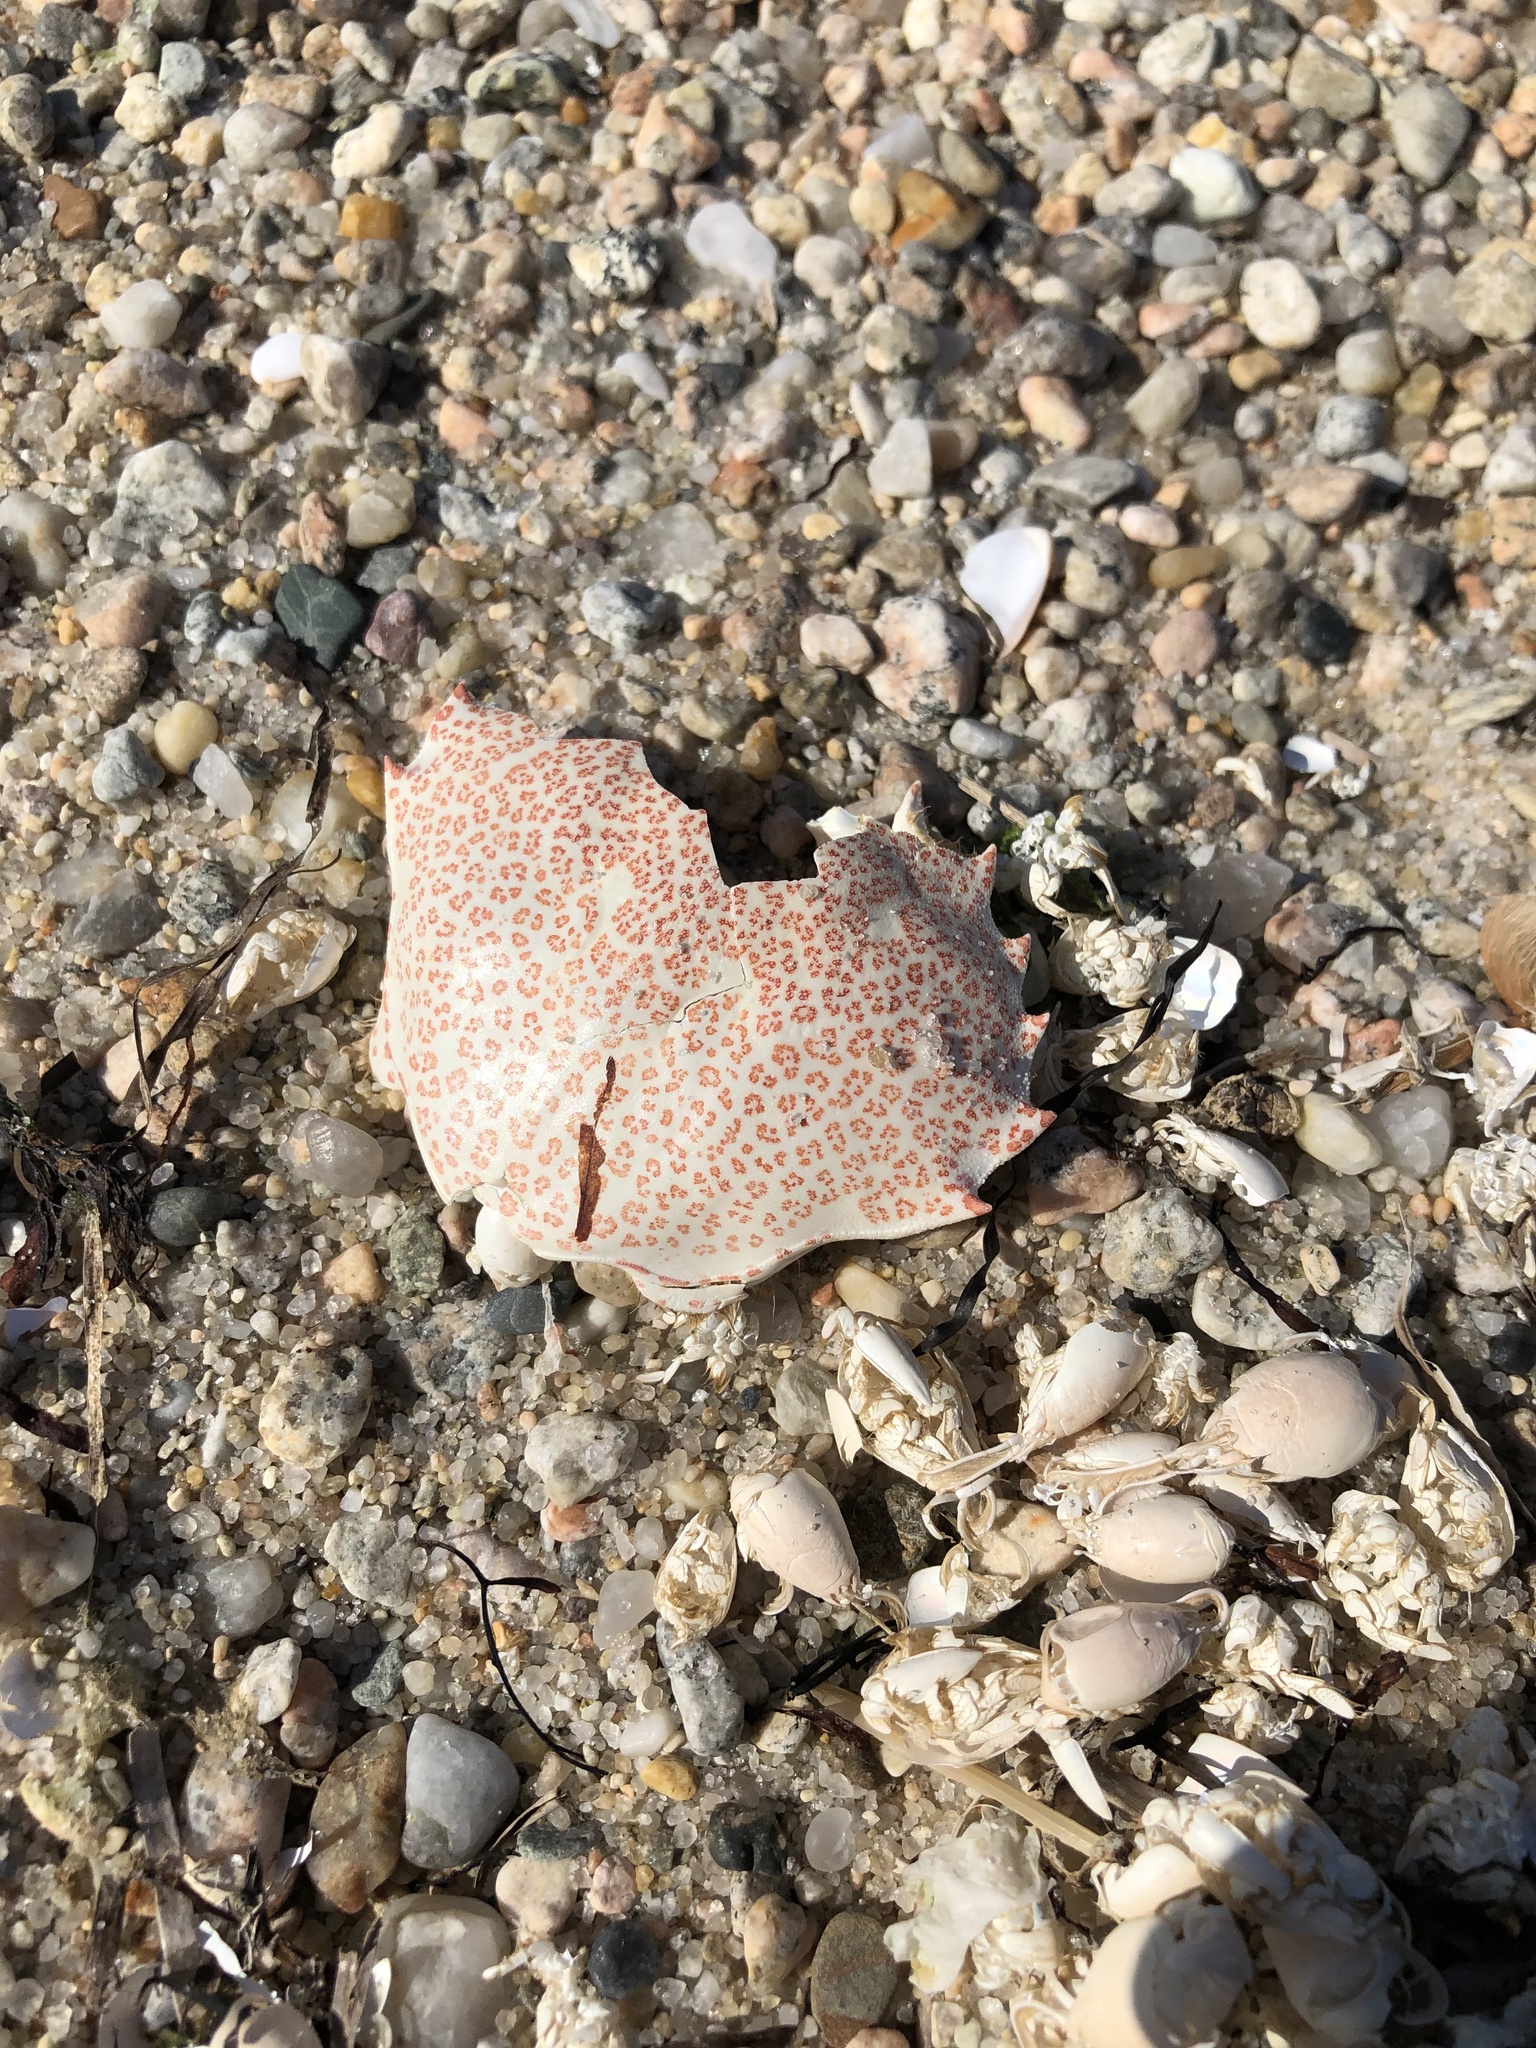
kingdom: Animalia
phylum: Arthropoda
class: Malacostraca
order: Decapoda
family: Ovalipidae
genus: Ovalipes
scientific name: Ovalipes ocellatus
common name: Lady crab
